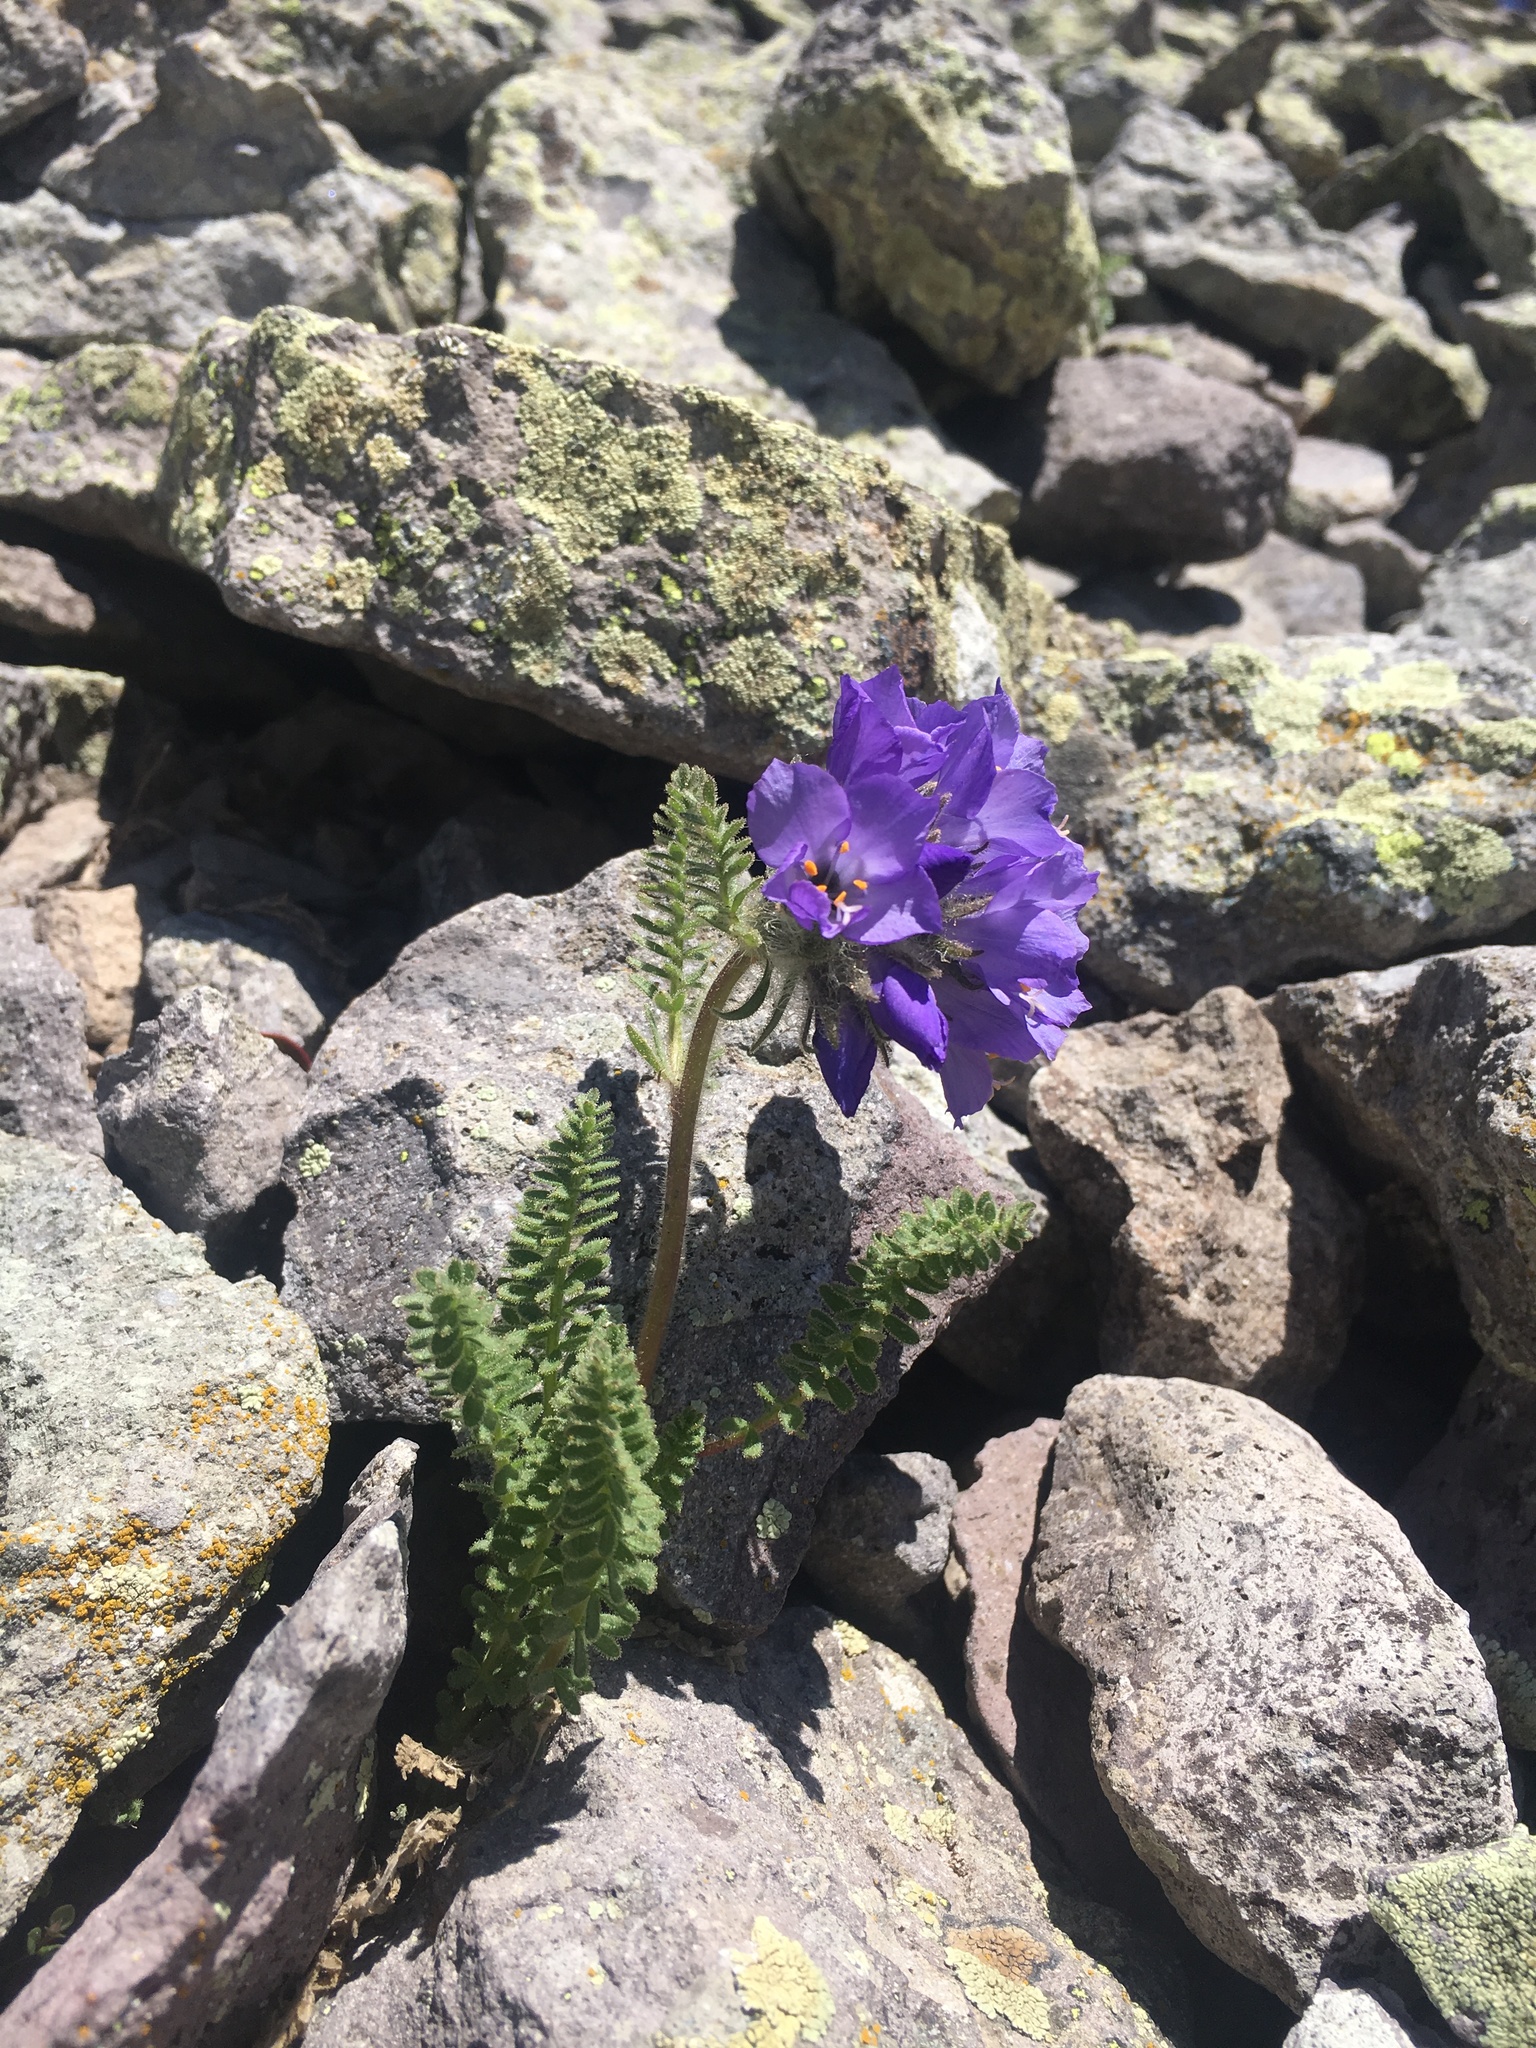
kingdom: Plantae
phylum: Tracheophyta
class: Magnoliopsida
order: Ericales
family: Polemoniaceae
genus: Polemonium
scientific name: Polemonium viscosum
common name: Skunk jacob's-ladder
